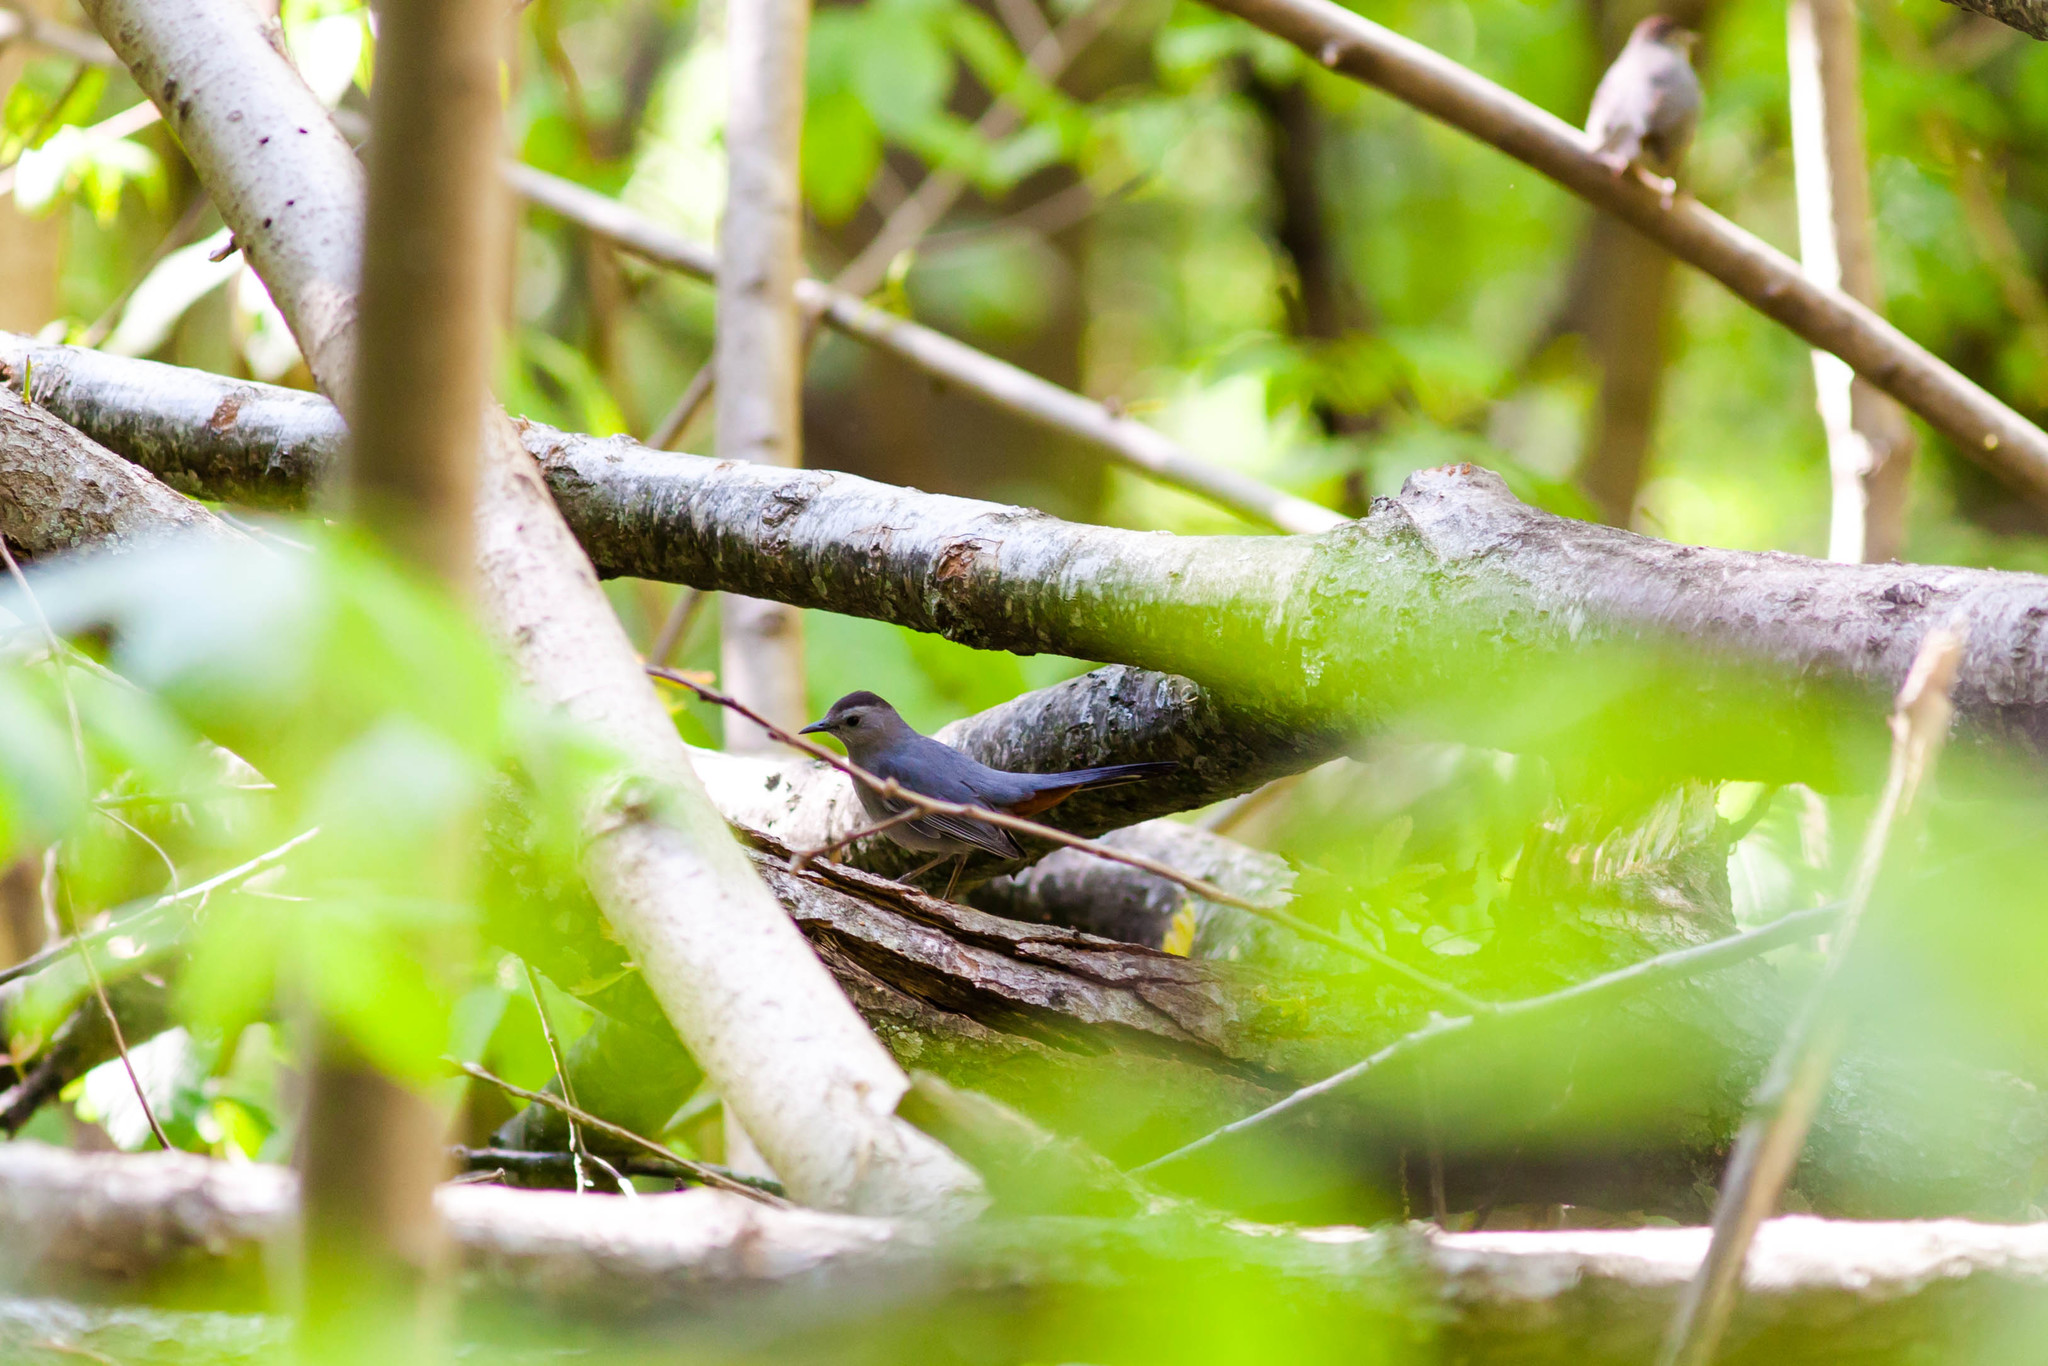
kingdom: Animalia
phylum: Chordata
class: Aves
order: Passeriformes
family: Mimidae
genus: Dumetella
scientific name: Dumetella carolinensis
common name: Gray catbird
